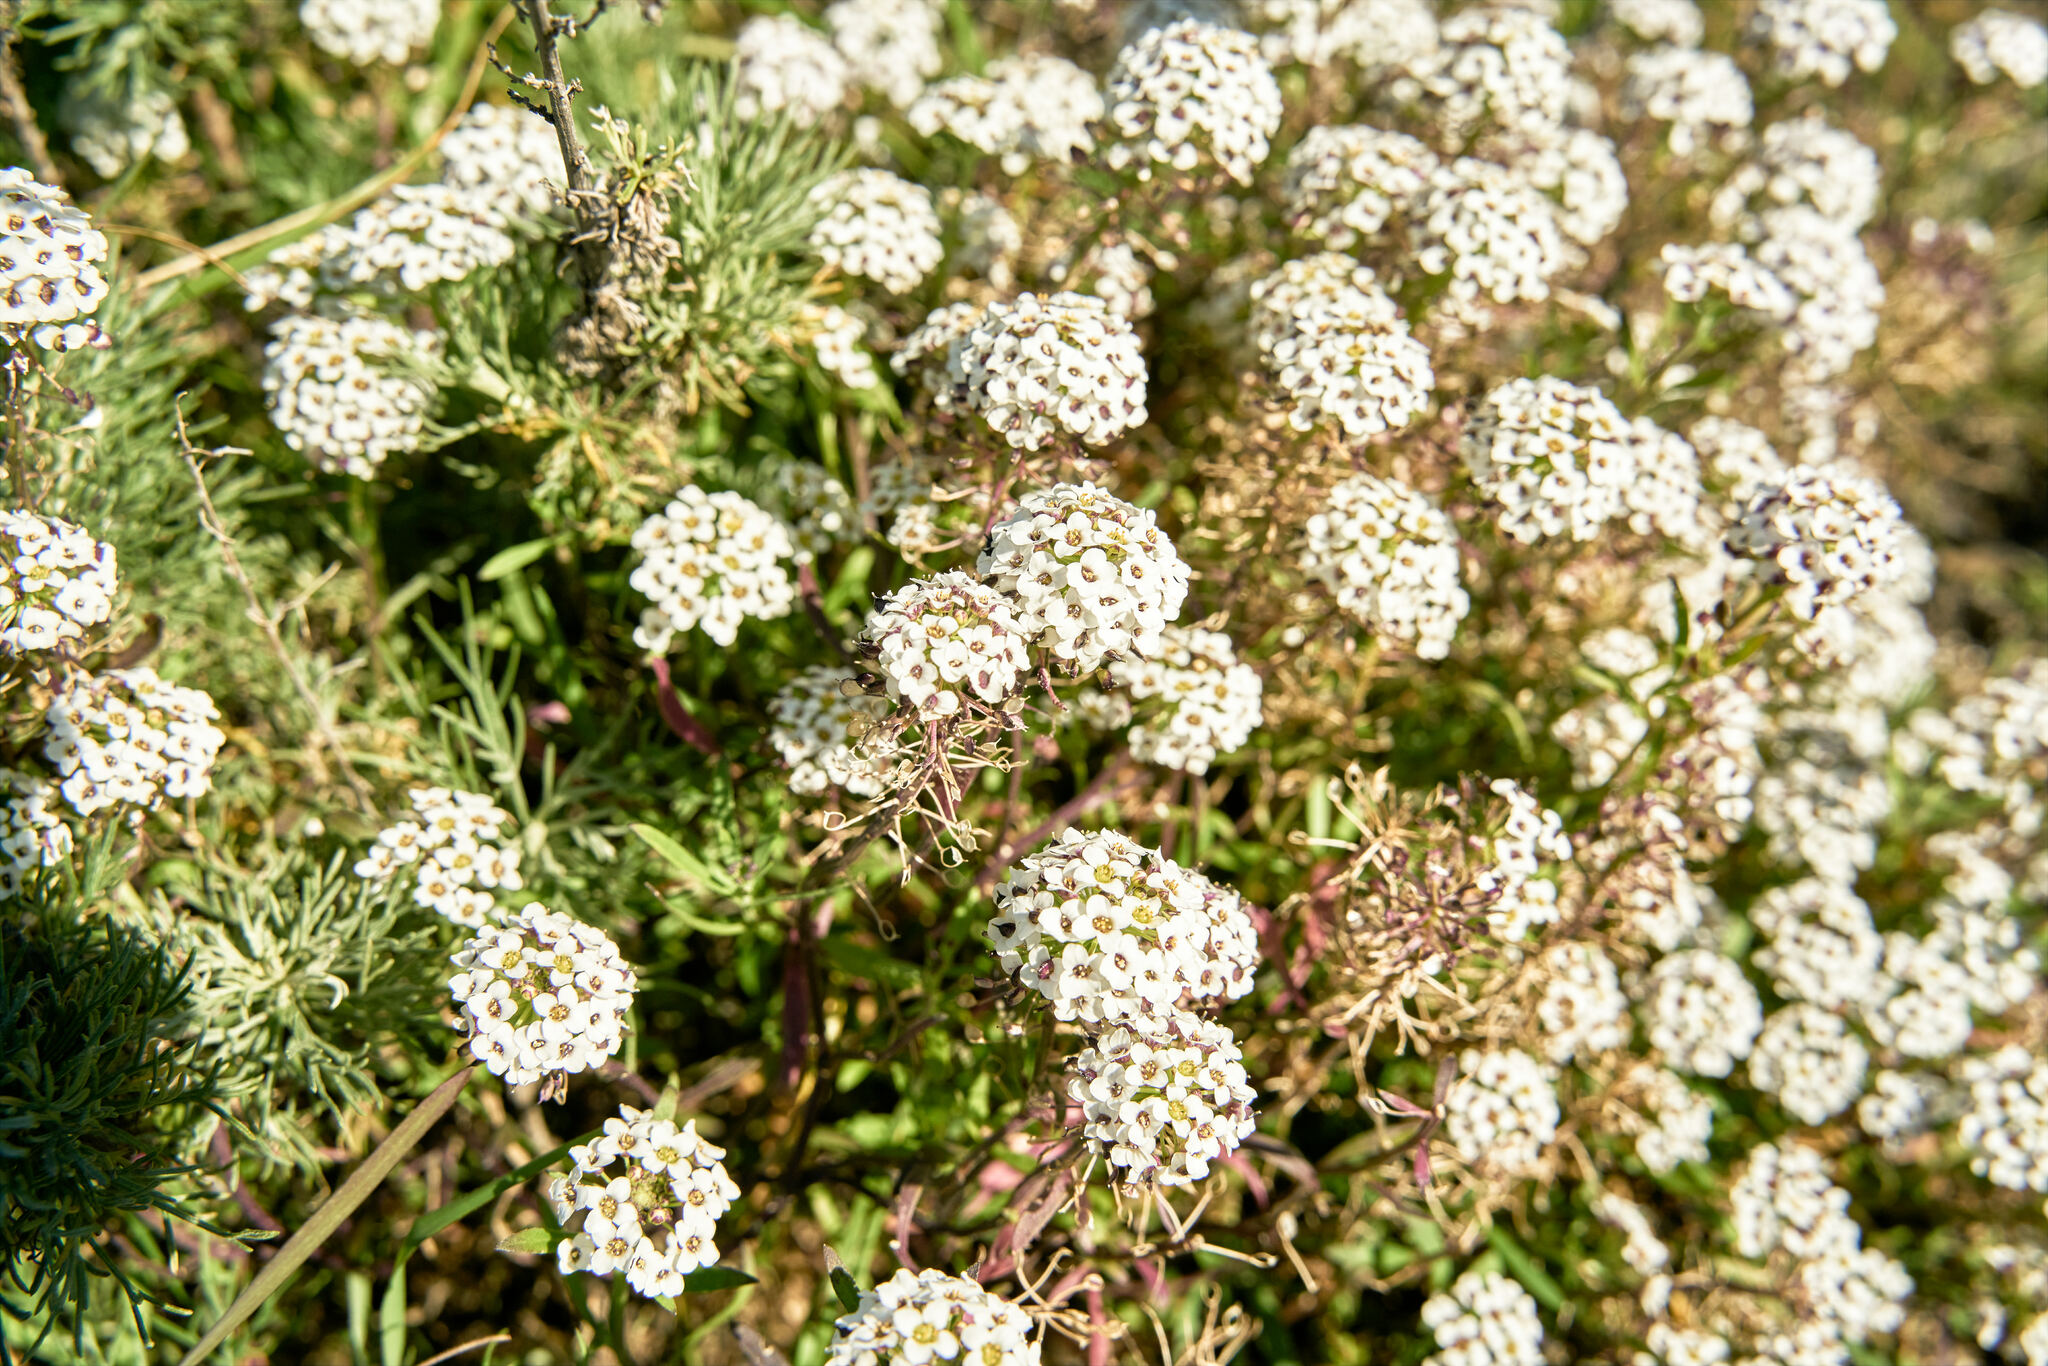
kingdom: Plantae
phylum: Tracheophyta
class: Magnoliopsida
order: Brassicales
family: Brassicaceae
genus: Lobularia
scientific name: Lobularia maritima
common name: Sweet alison
